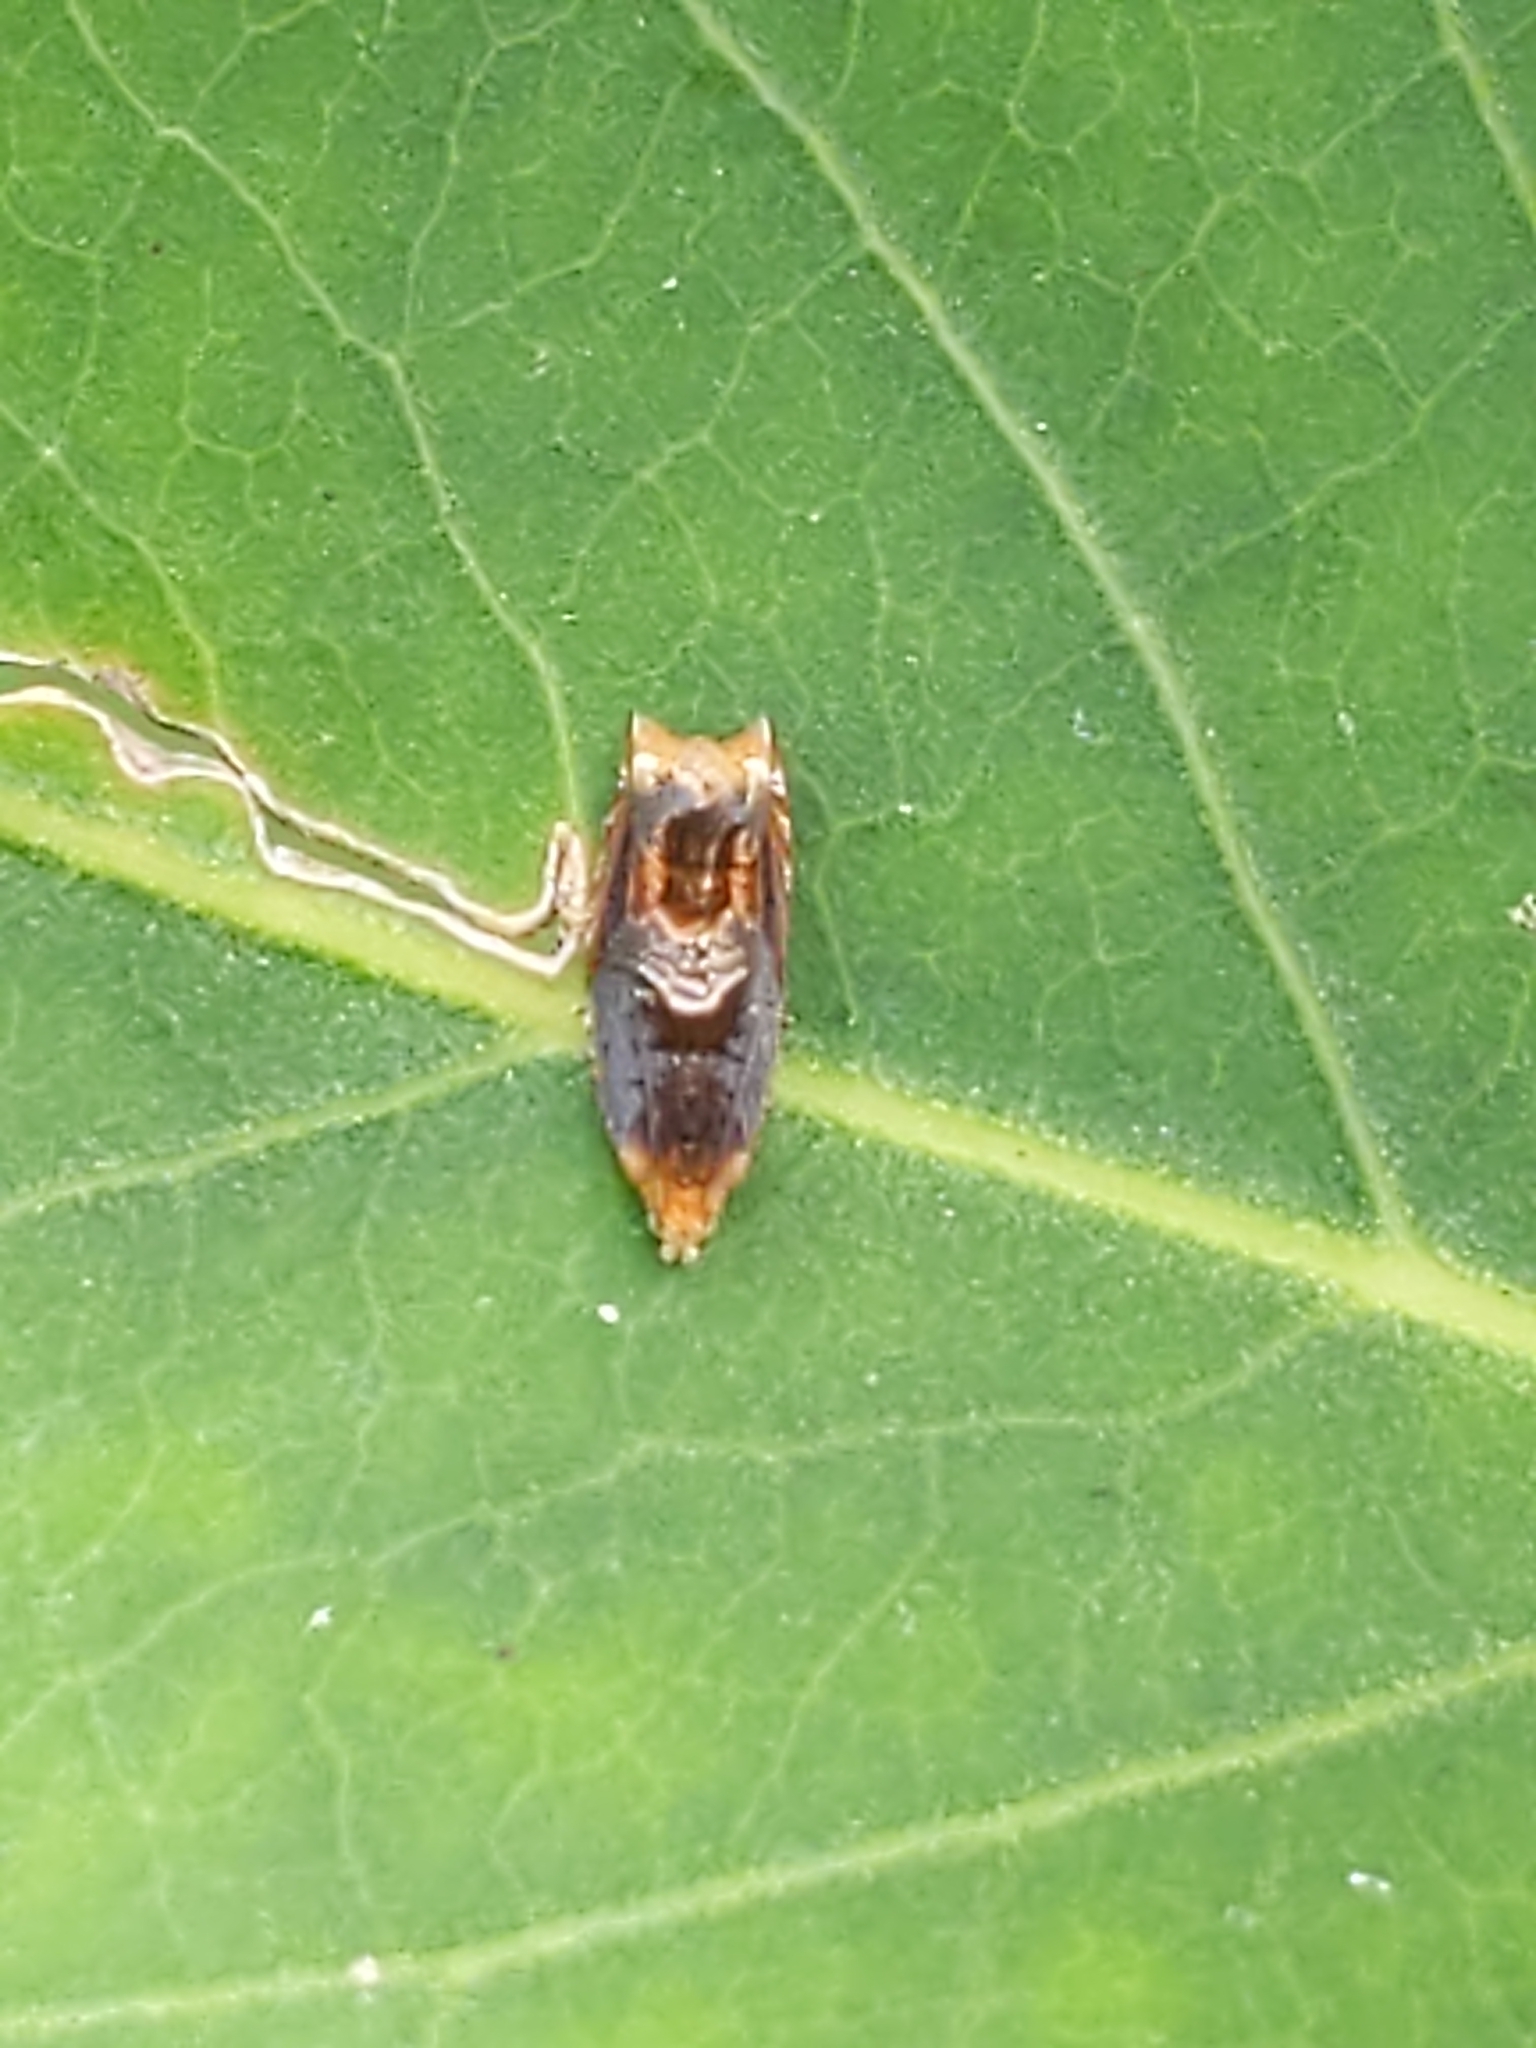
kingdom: Animalia
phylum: Arthropoda
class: Insecta
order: Lepidoptera
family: Tortricidae
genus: Ancylis
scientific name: Ancylis muricana
